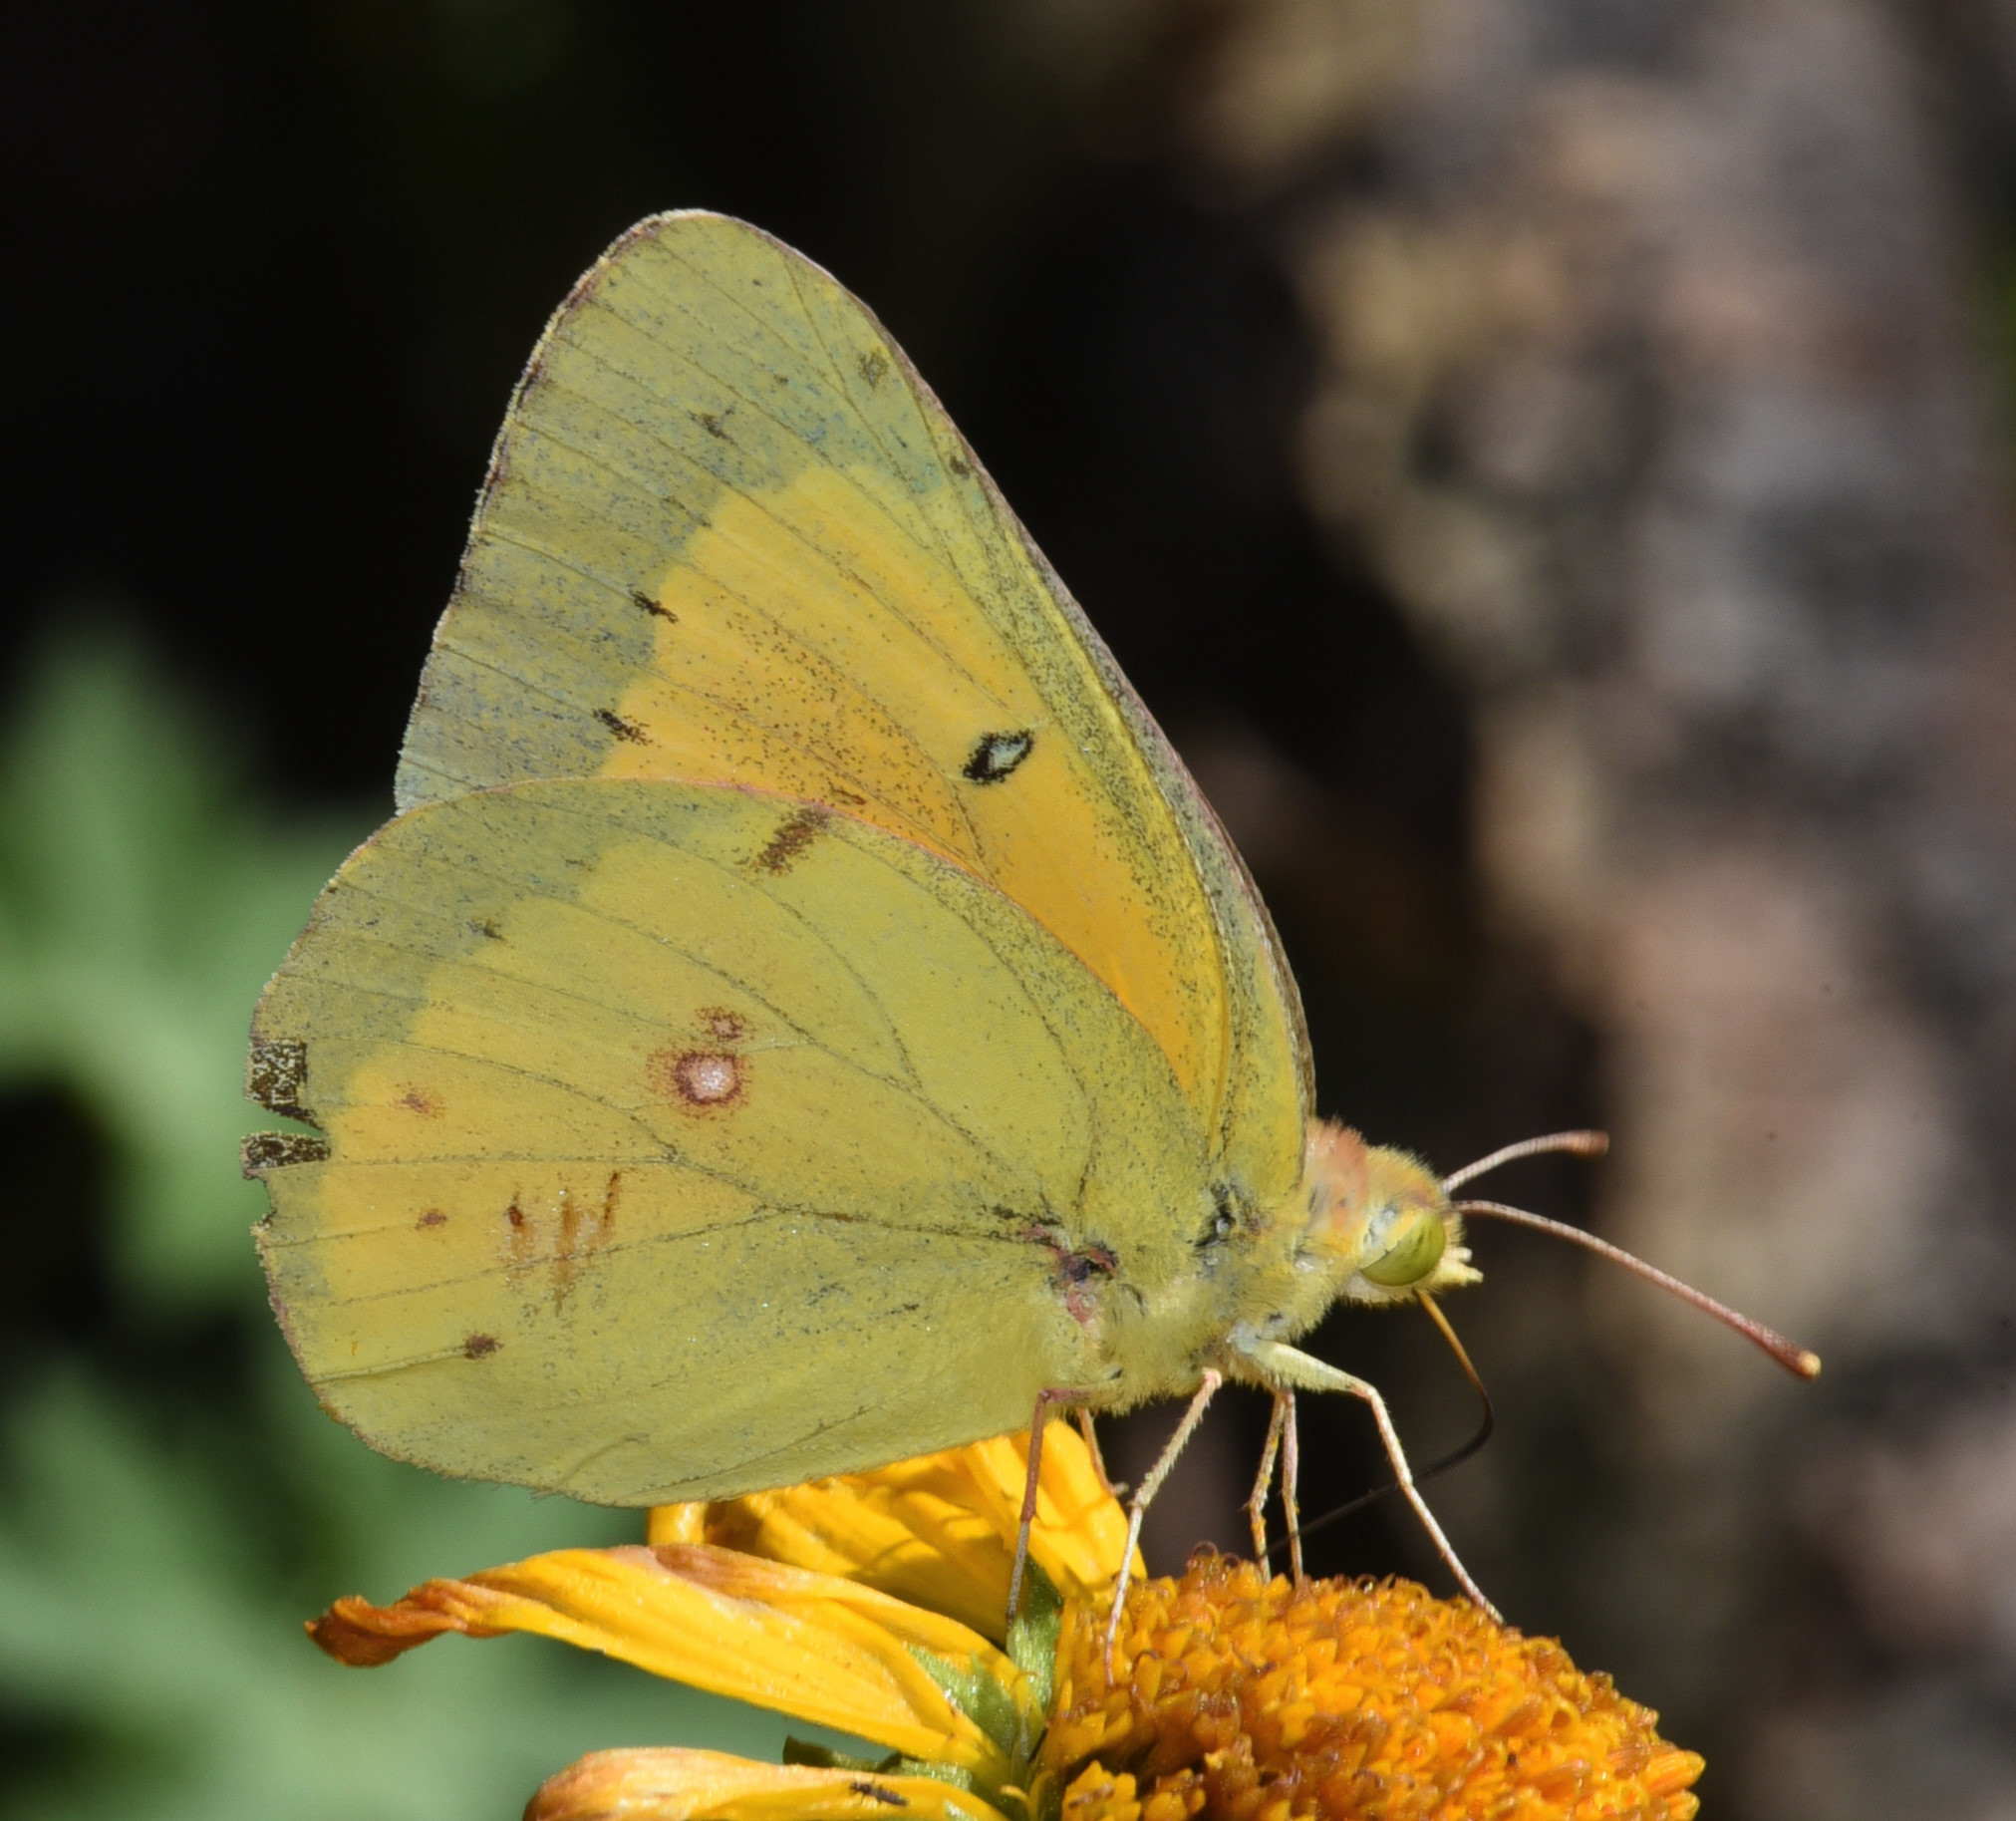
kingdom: Animalia
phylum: Arthropoda
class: Insecta
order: Lepidoptera
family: Pieridae
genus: Colias
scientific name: Colias eurytheme
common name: Alfalfa butterfly
